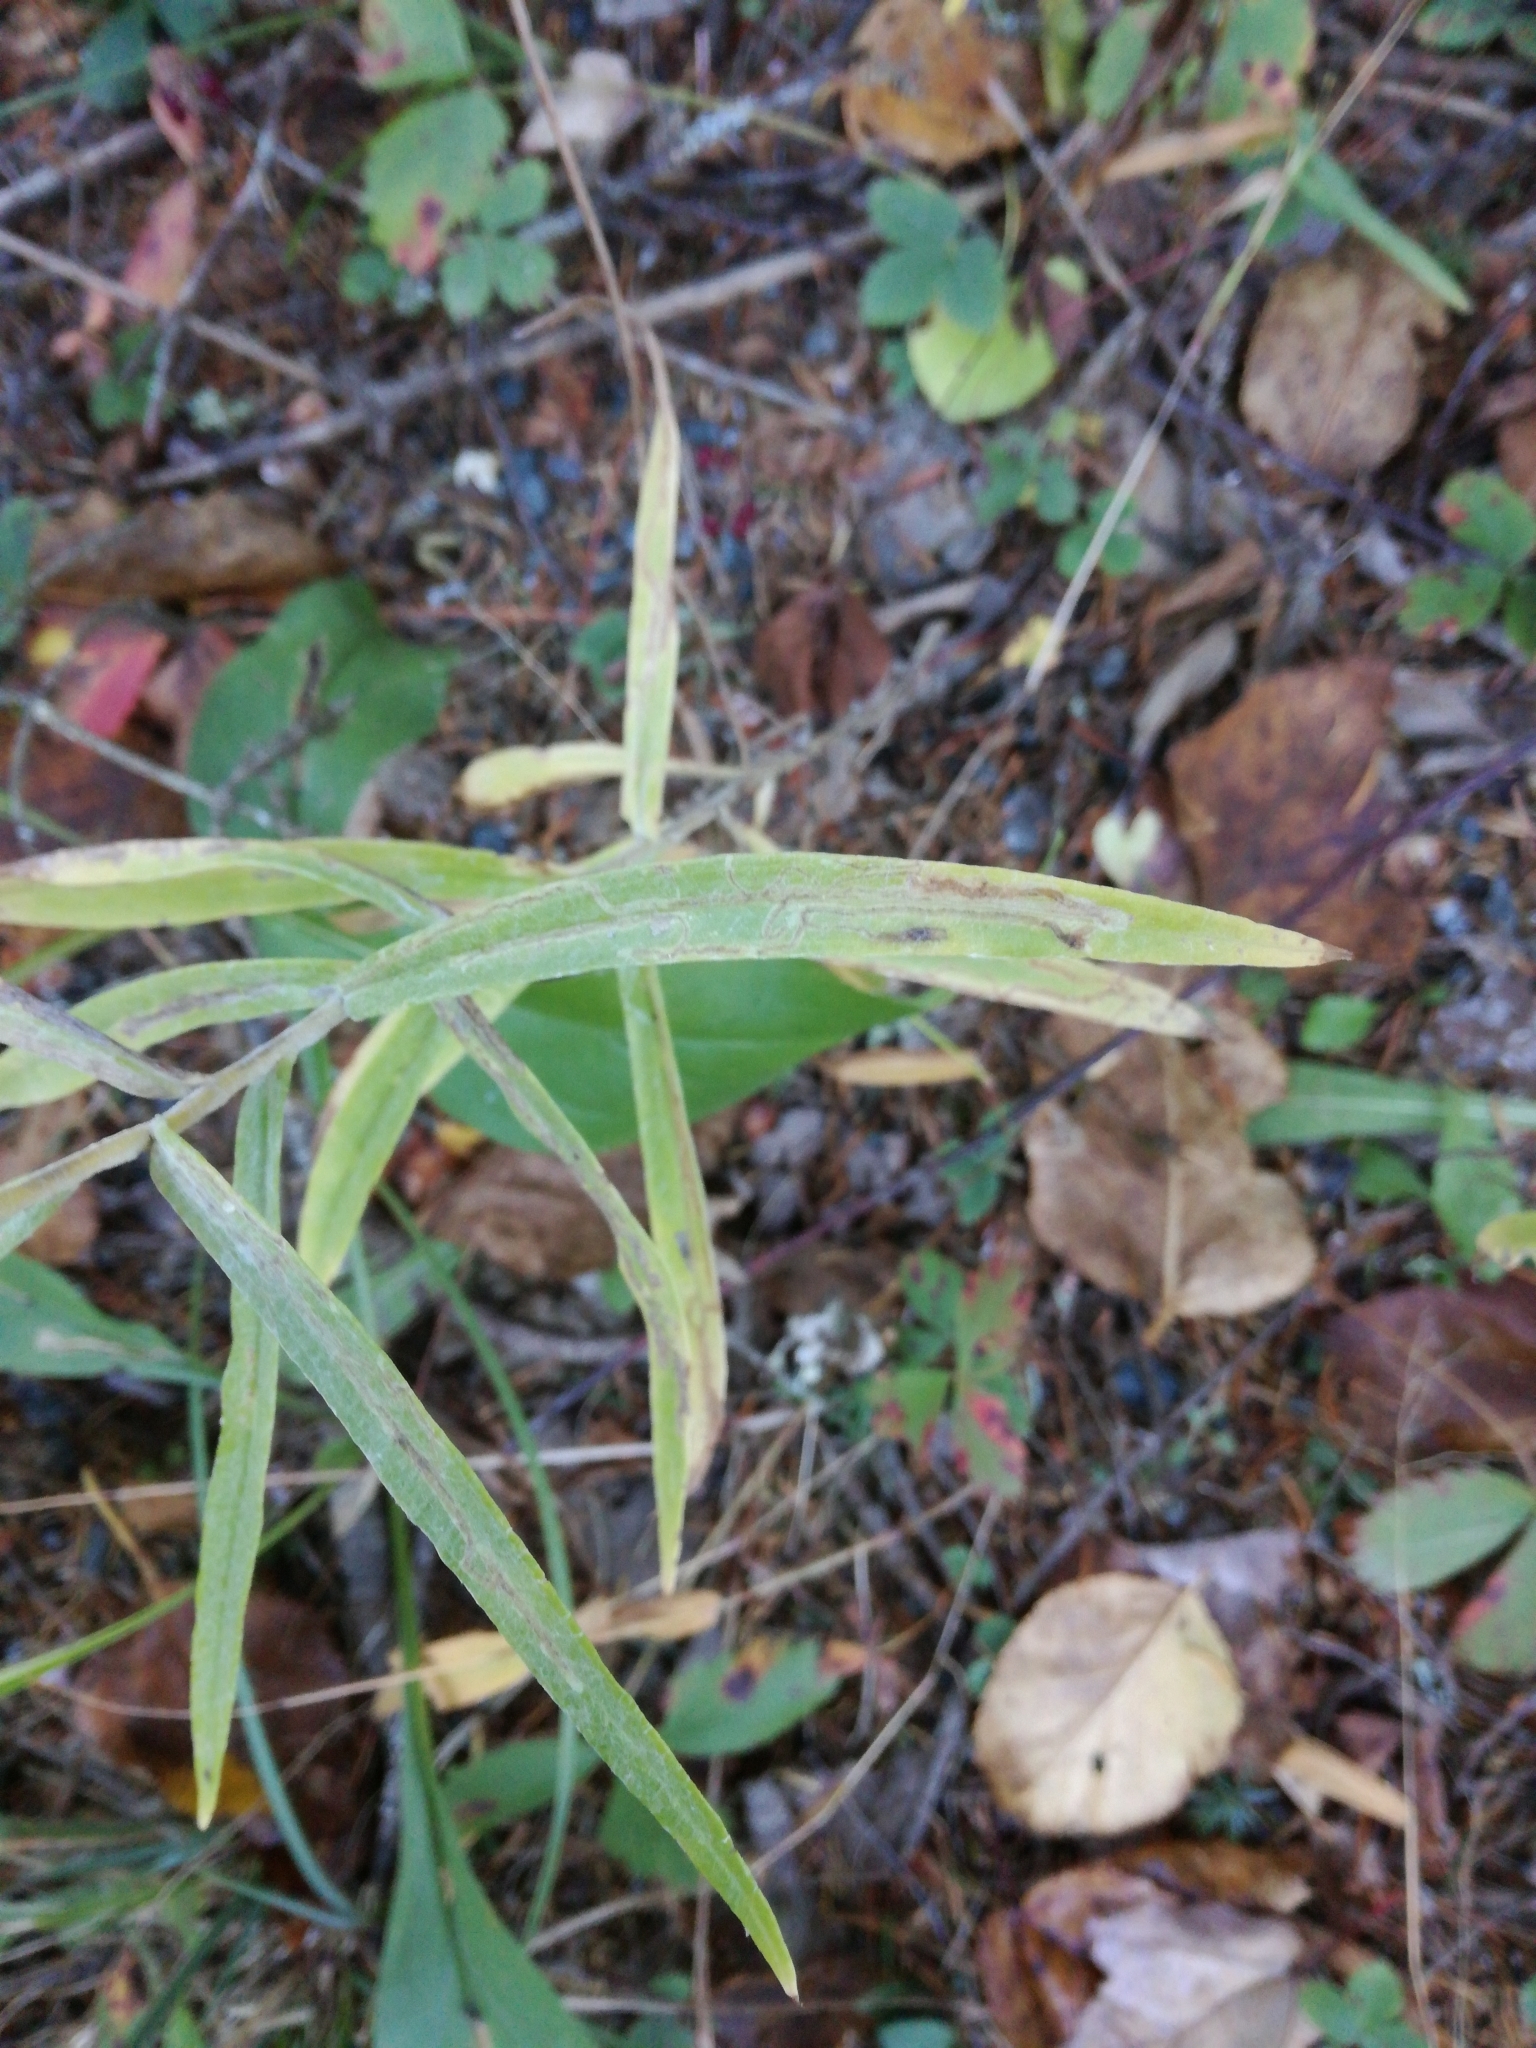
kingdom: Plantae
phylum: Tracheophyta
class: Magnoliopsida
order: Asterales
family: Asteraceae
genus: Anaphalis
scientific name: Anaphalis margaritacea
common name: Pearly everlasting
